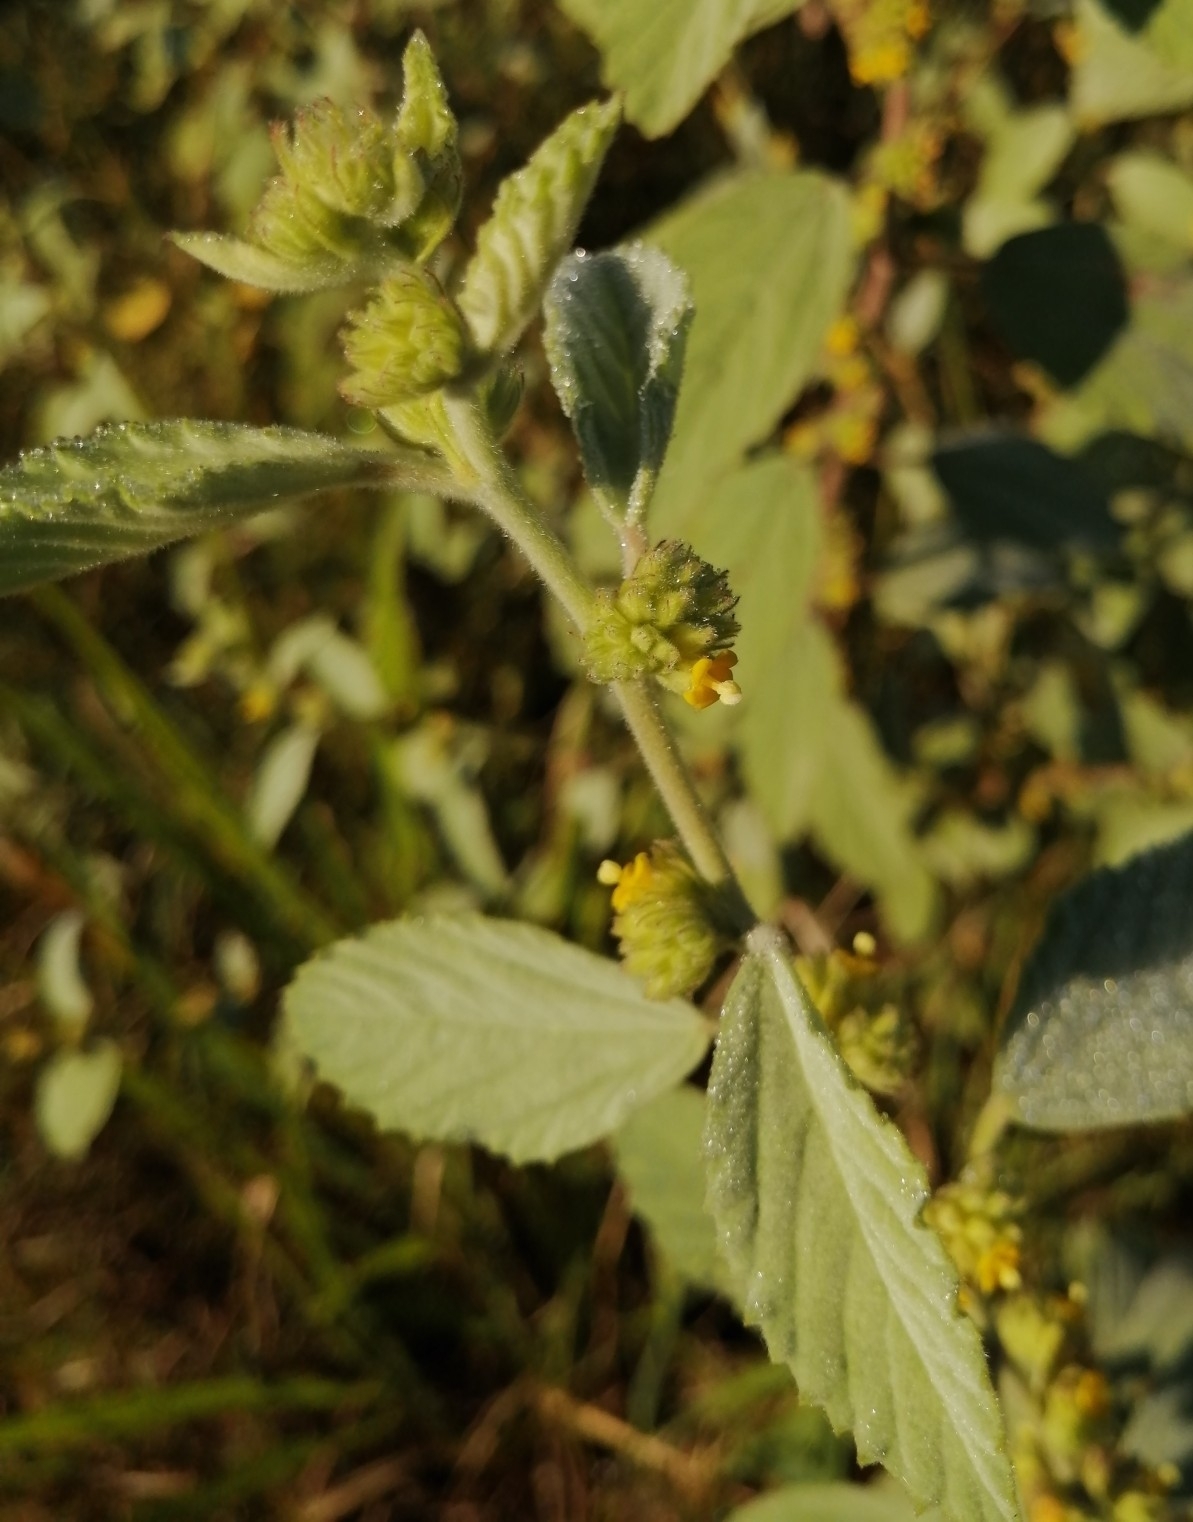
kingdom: Plantae
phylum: Tracheophyta
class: Magnoliopsida
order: Malvales
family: Malvaceae
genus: Waltheria
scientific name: Waltheria indica
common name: Leather-coat
